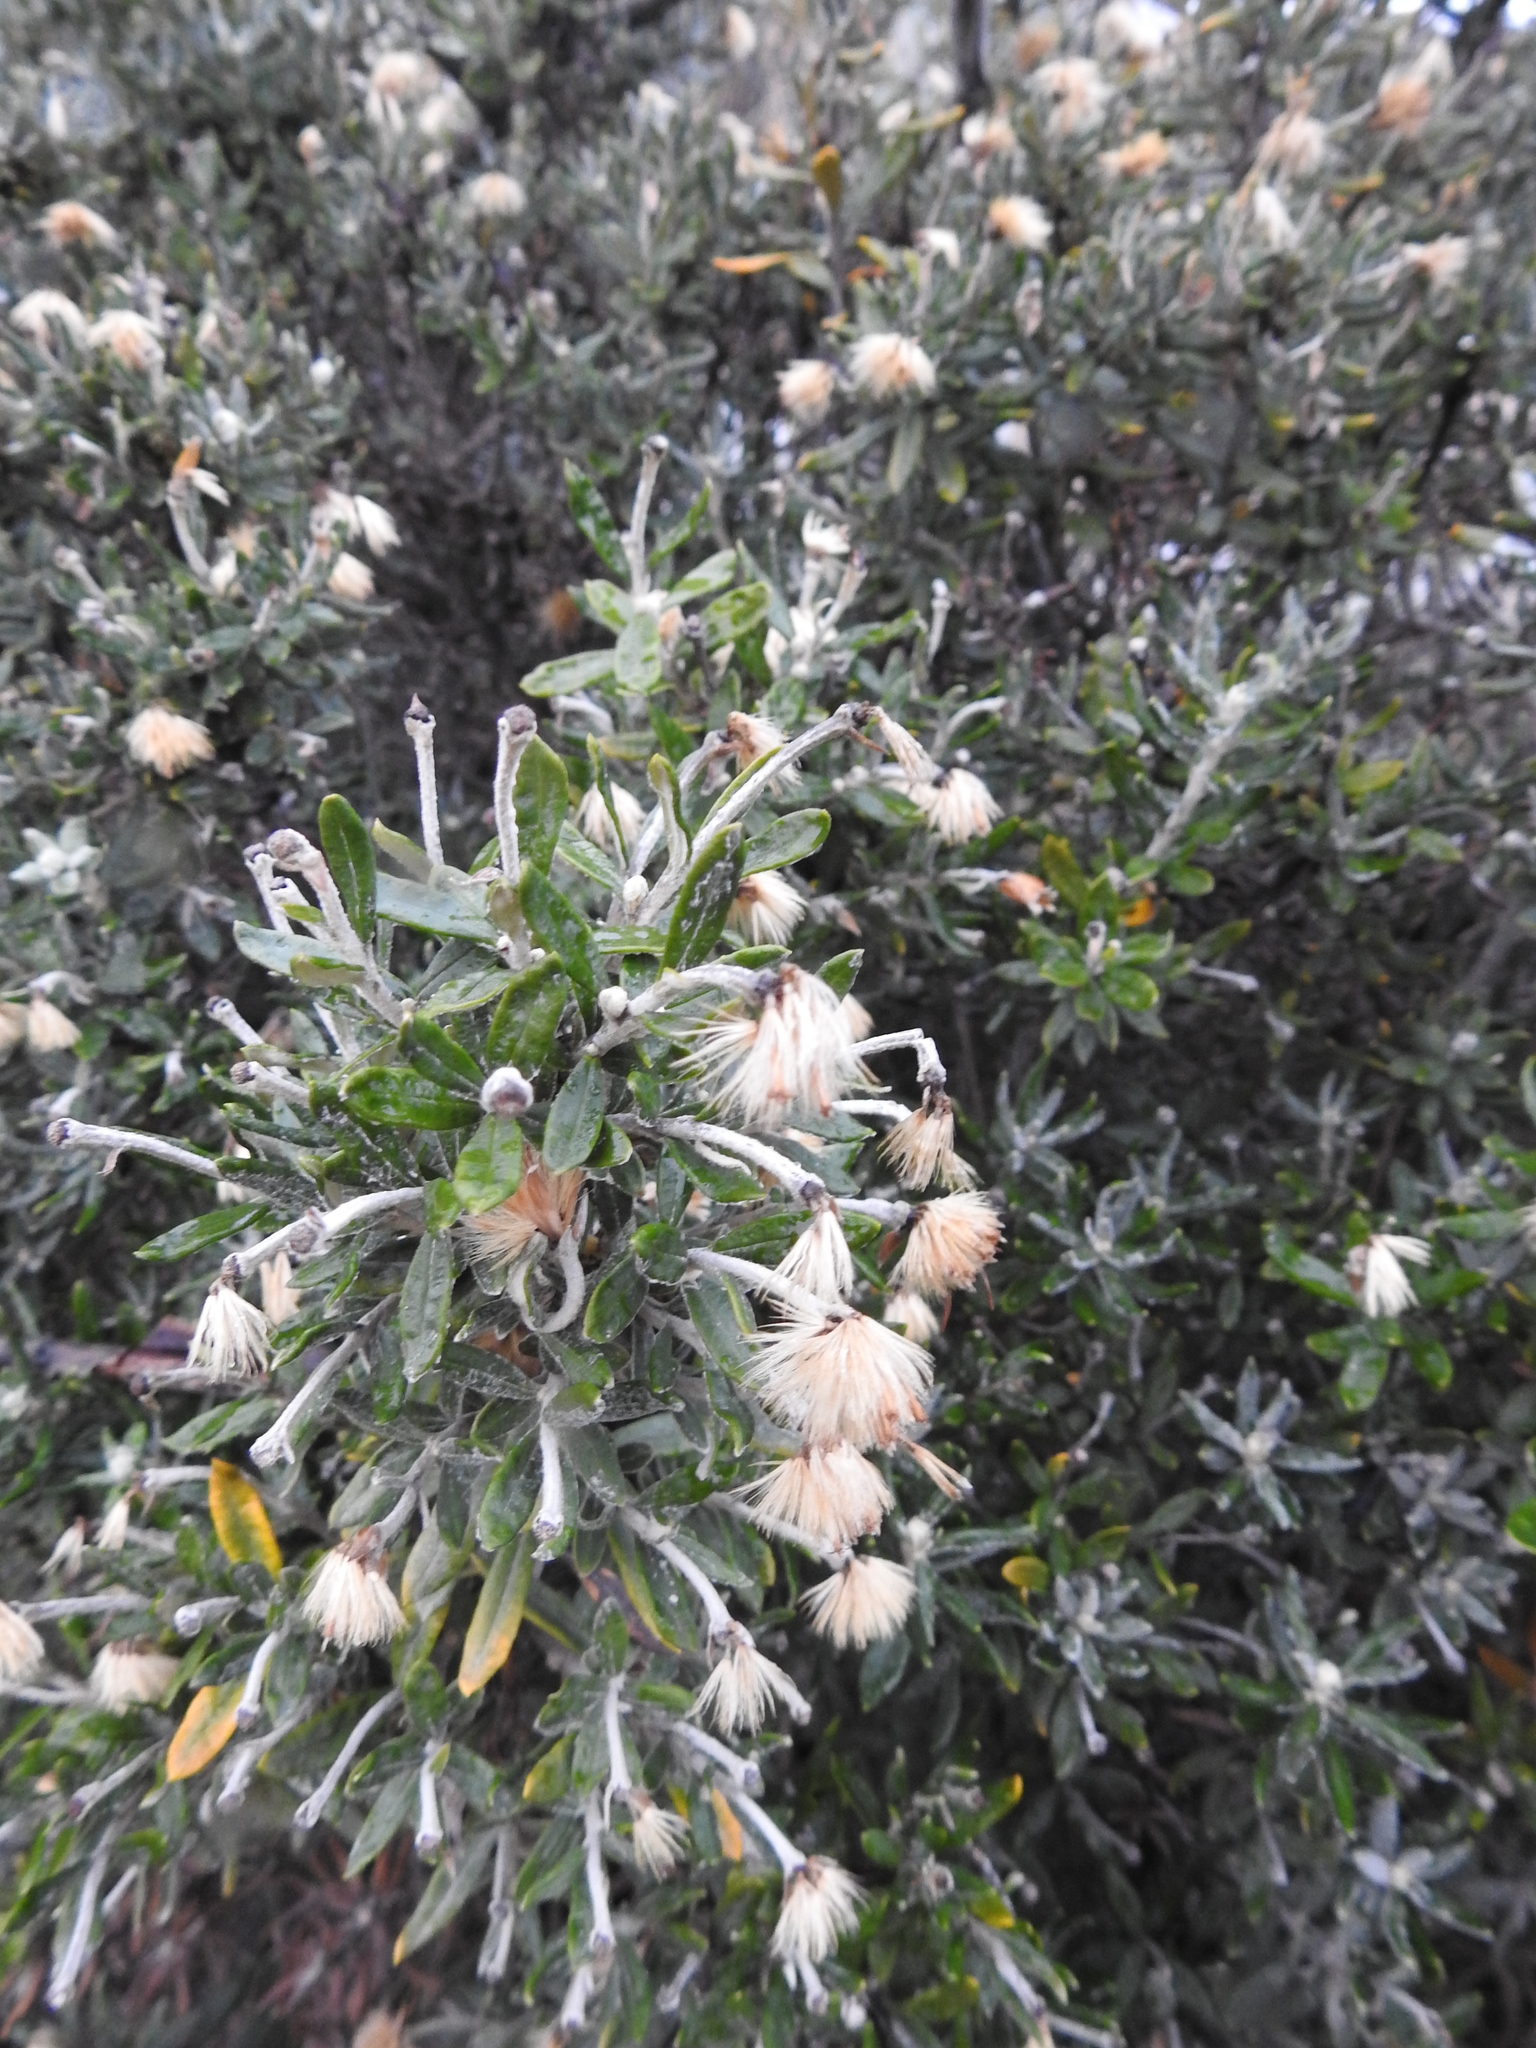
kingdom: Plantae
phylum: Tracheophyta
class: Magnoliopsida
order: Asterales
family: Asteraceae
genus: Chiliotrichum
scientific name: Chiliotrichum diffusum
